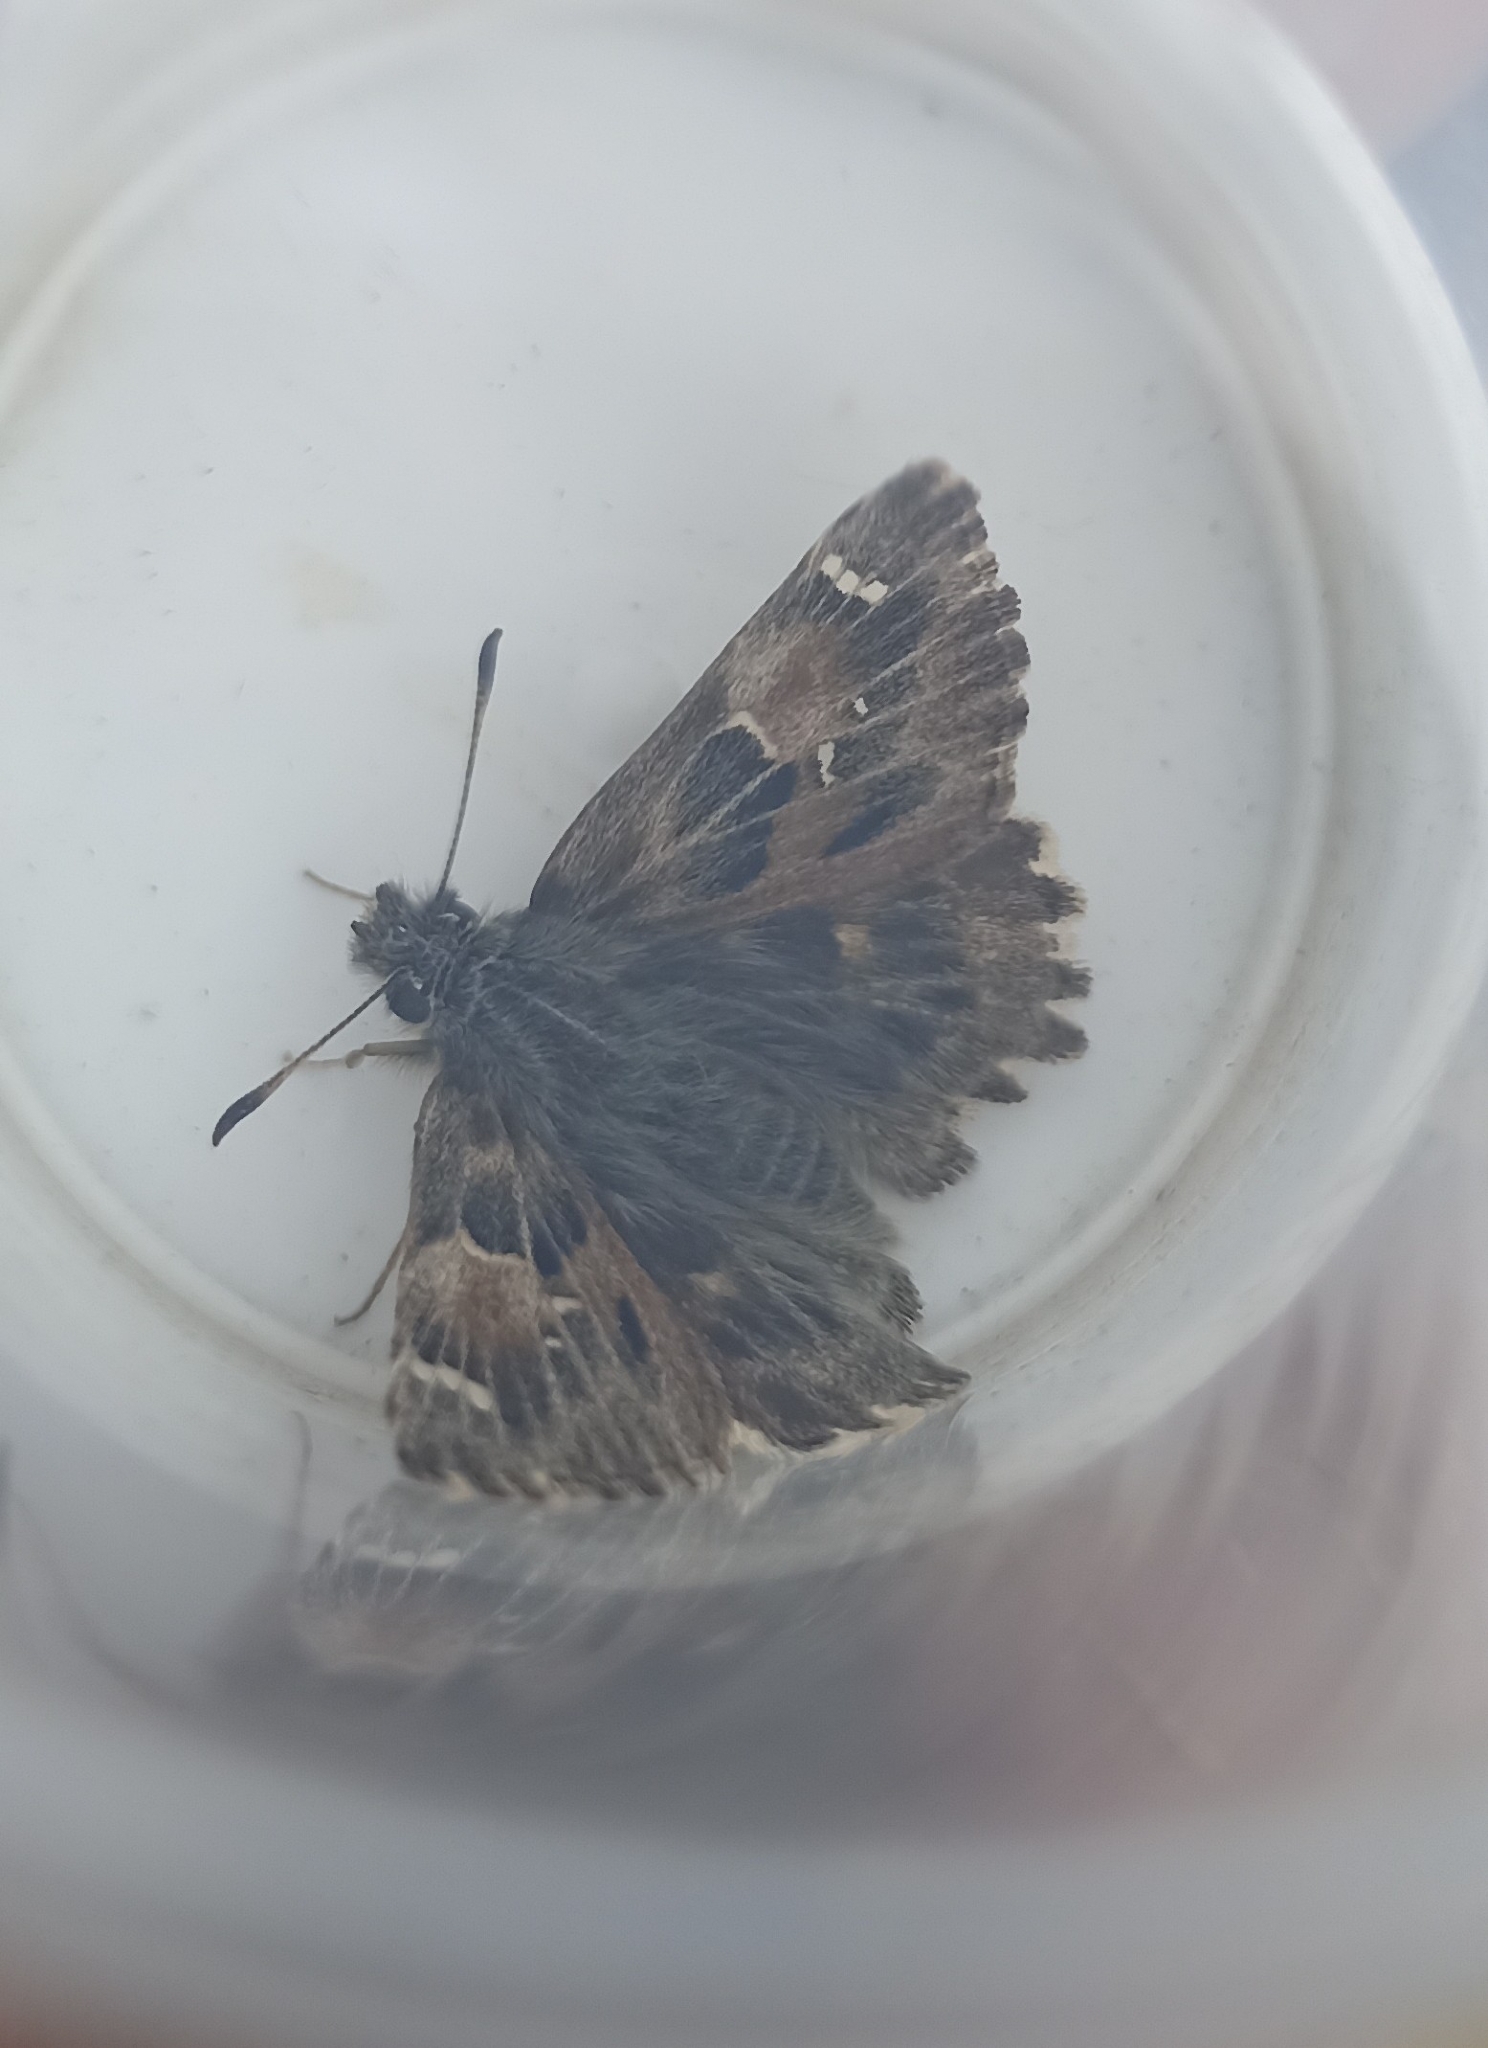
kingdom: Animalia
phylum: Arthropoda
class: Insecta
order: Lepidoptera
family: Hesperiidae
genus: Carcharodus
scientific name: Carcharodus alceae
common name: Mallow skipper
